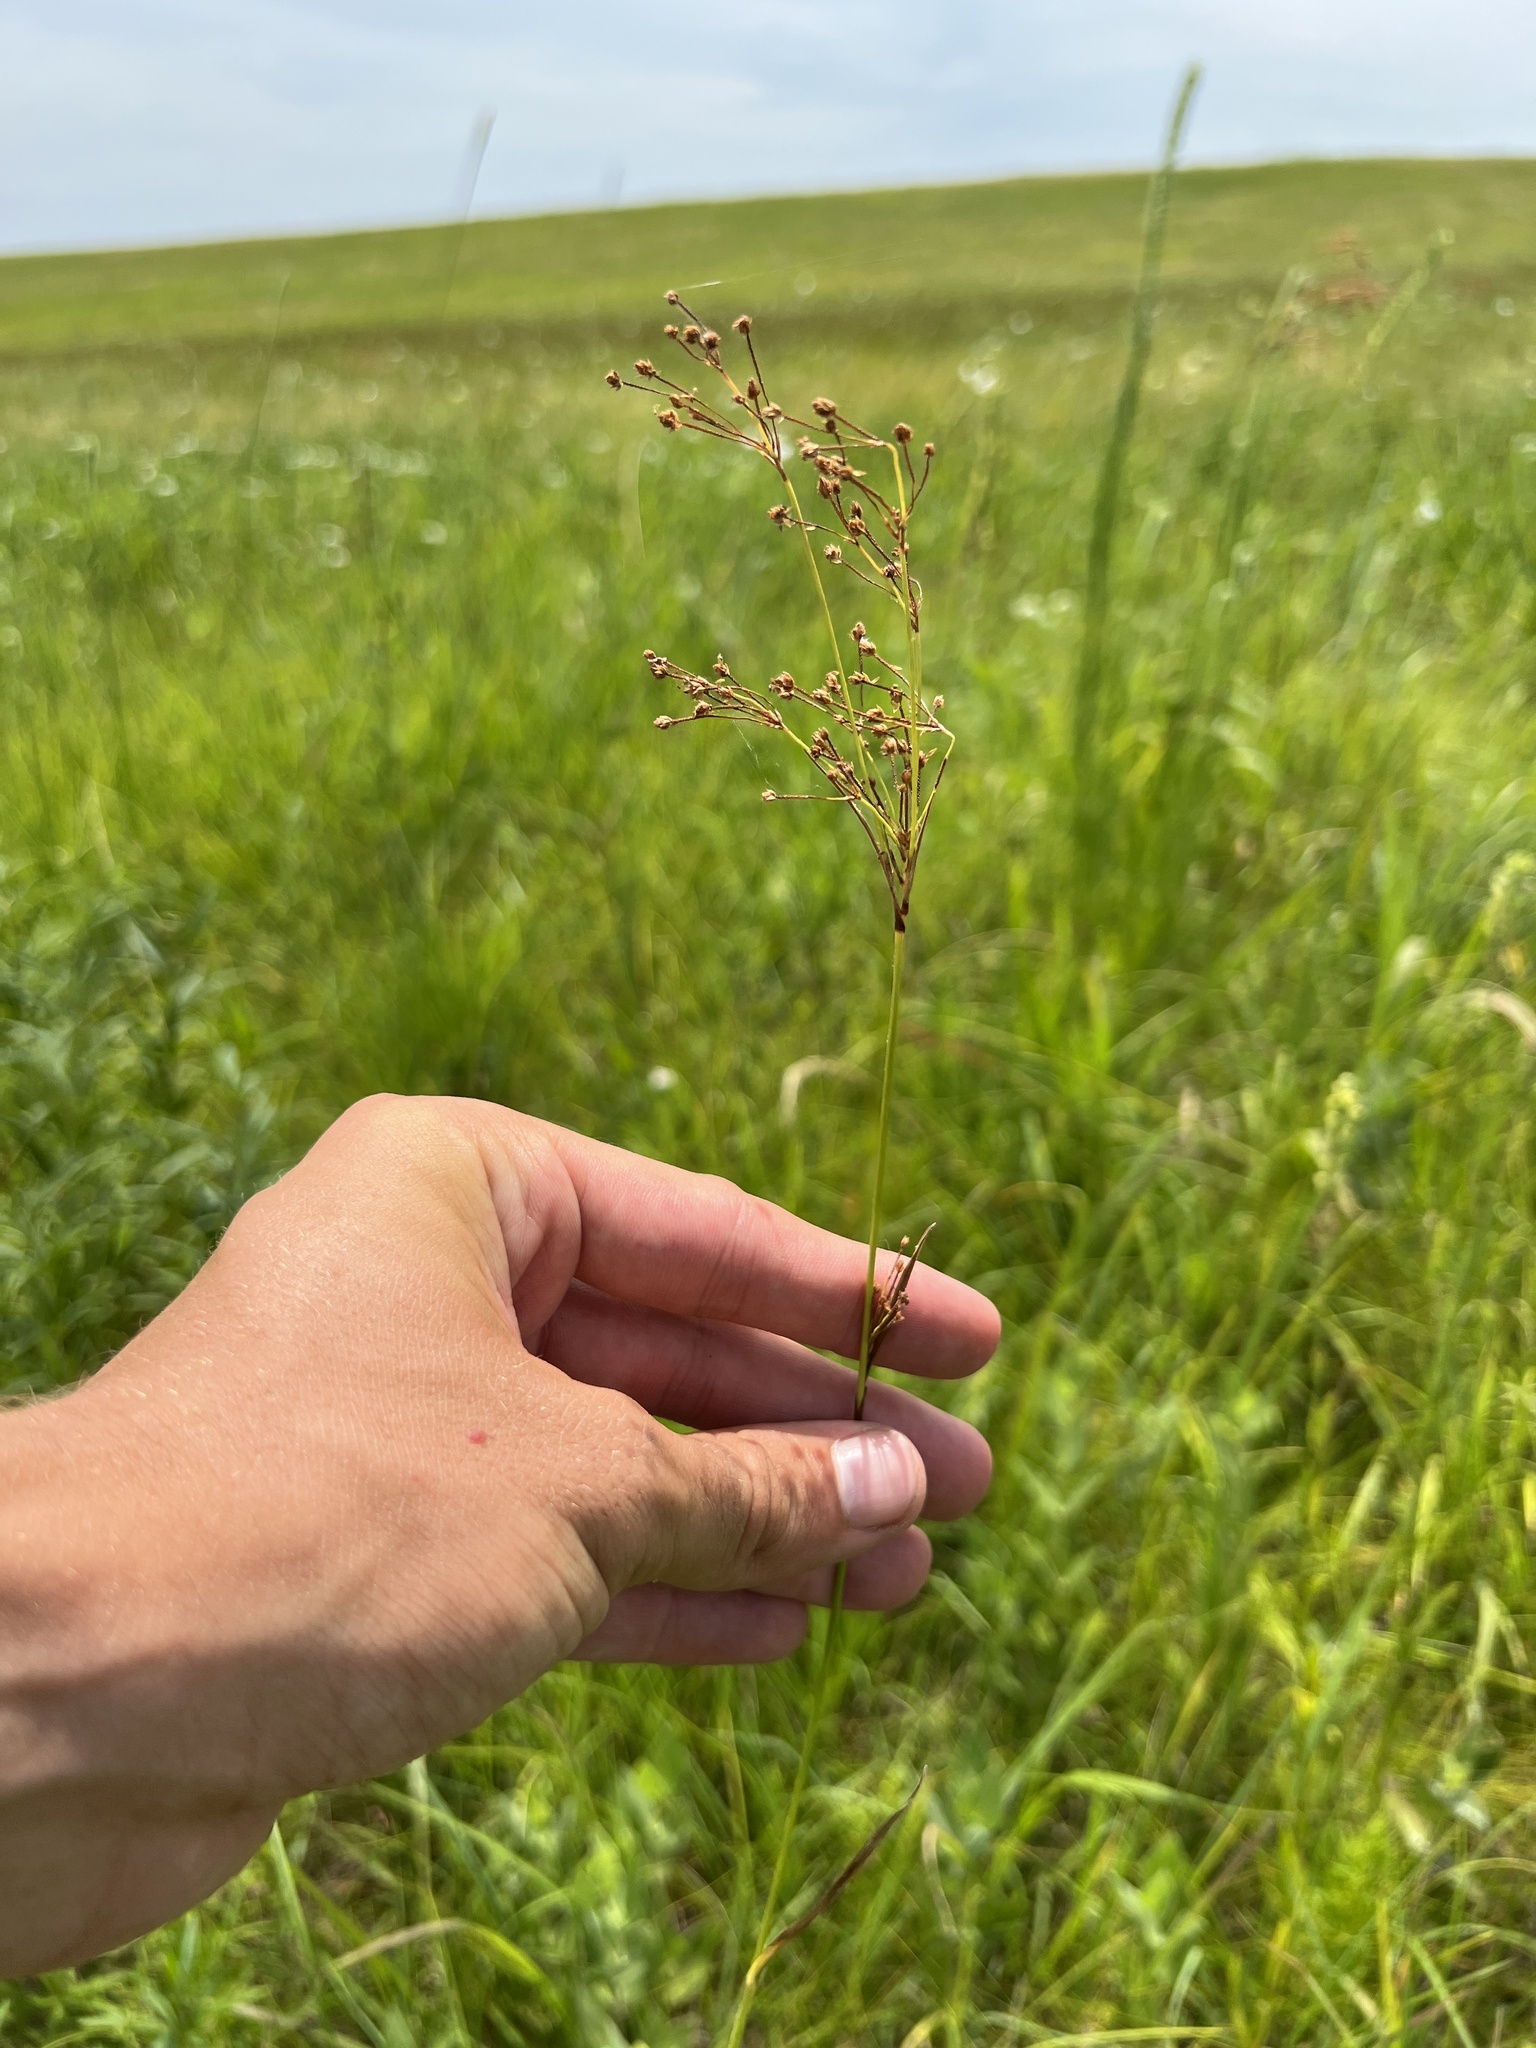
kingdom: Plantae
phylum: Tracheophyta
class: Liliopsida
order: Poales
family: Cyperaceae
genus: Scirpus
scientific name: Scirpus pendulus
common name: Nodding bulrush
